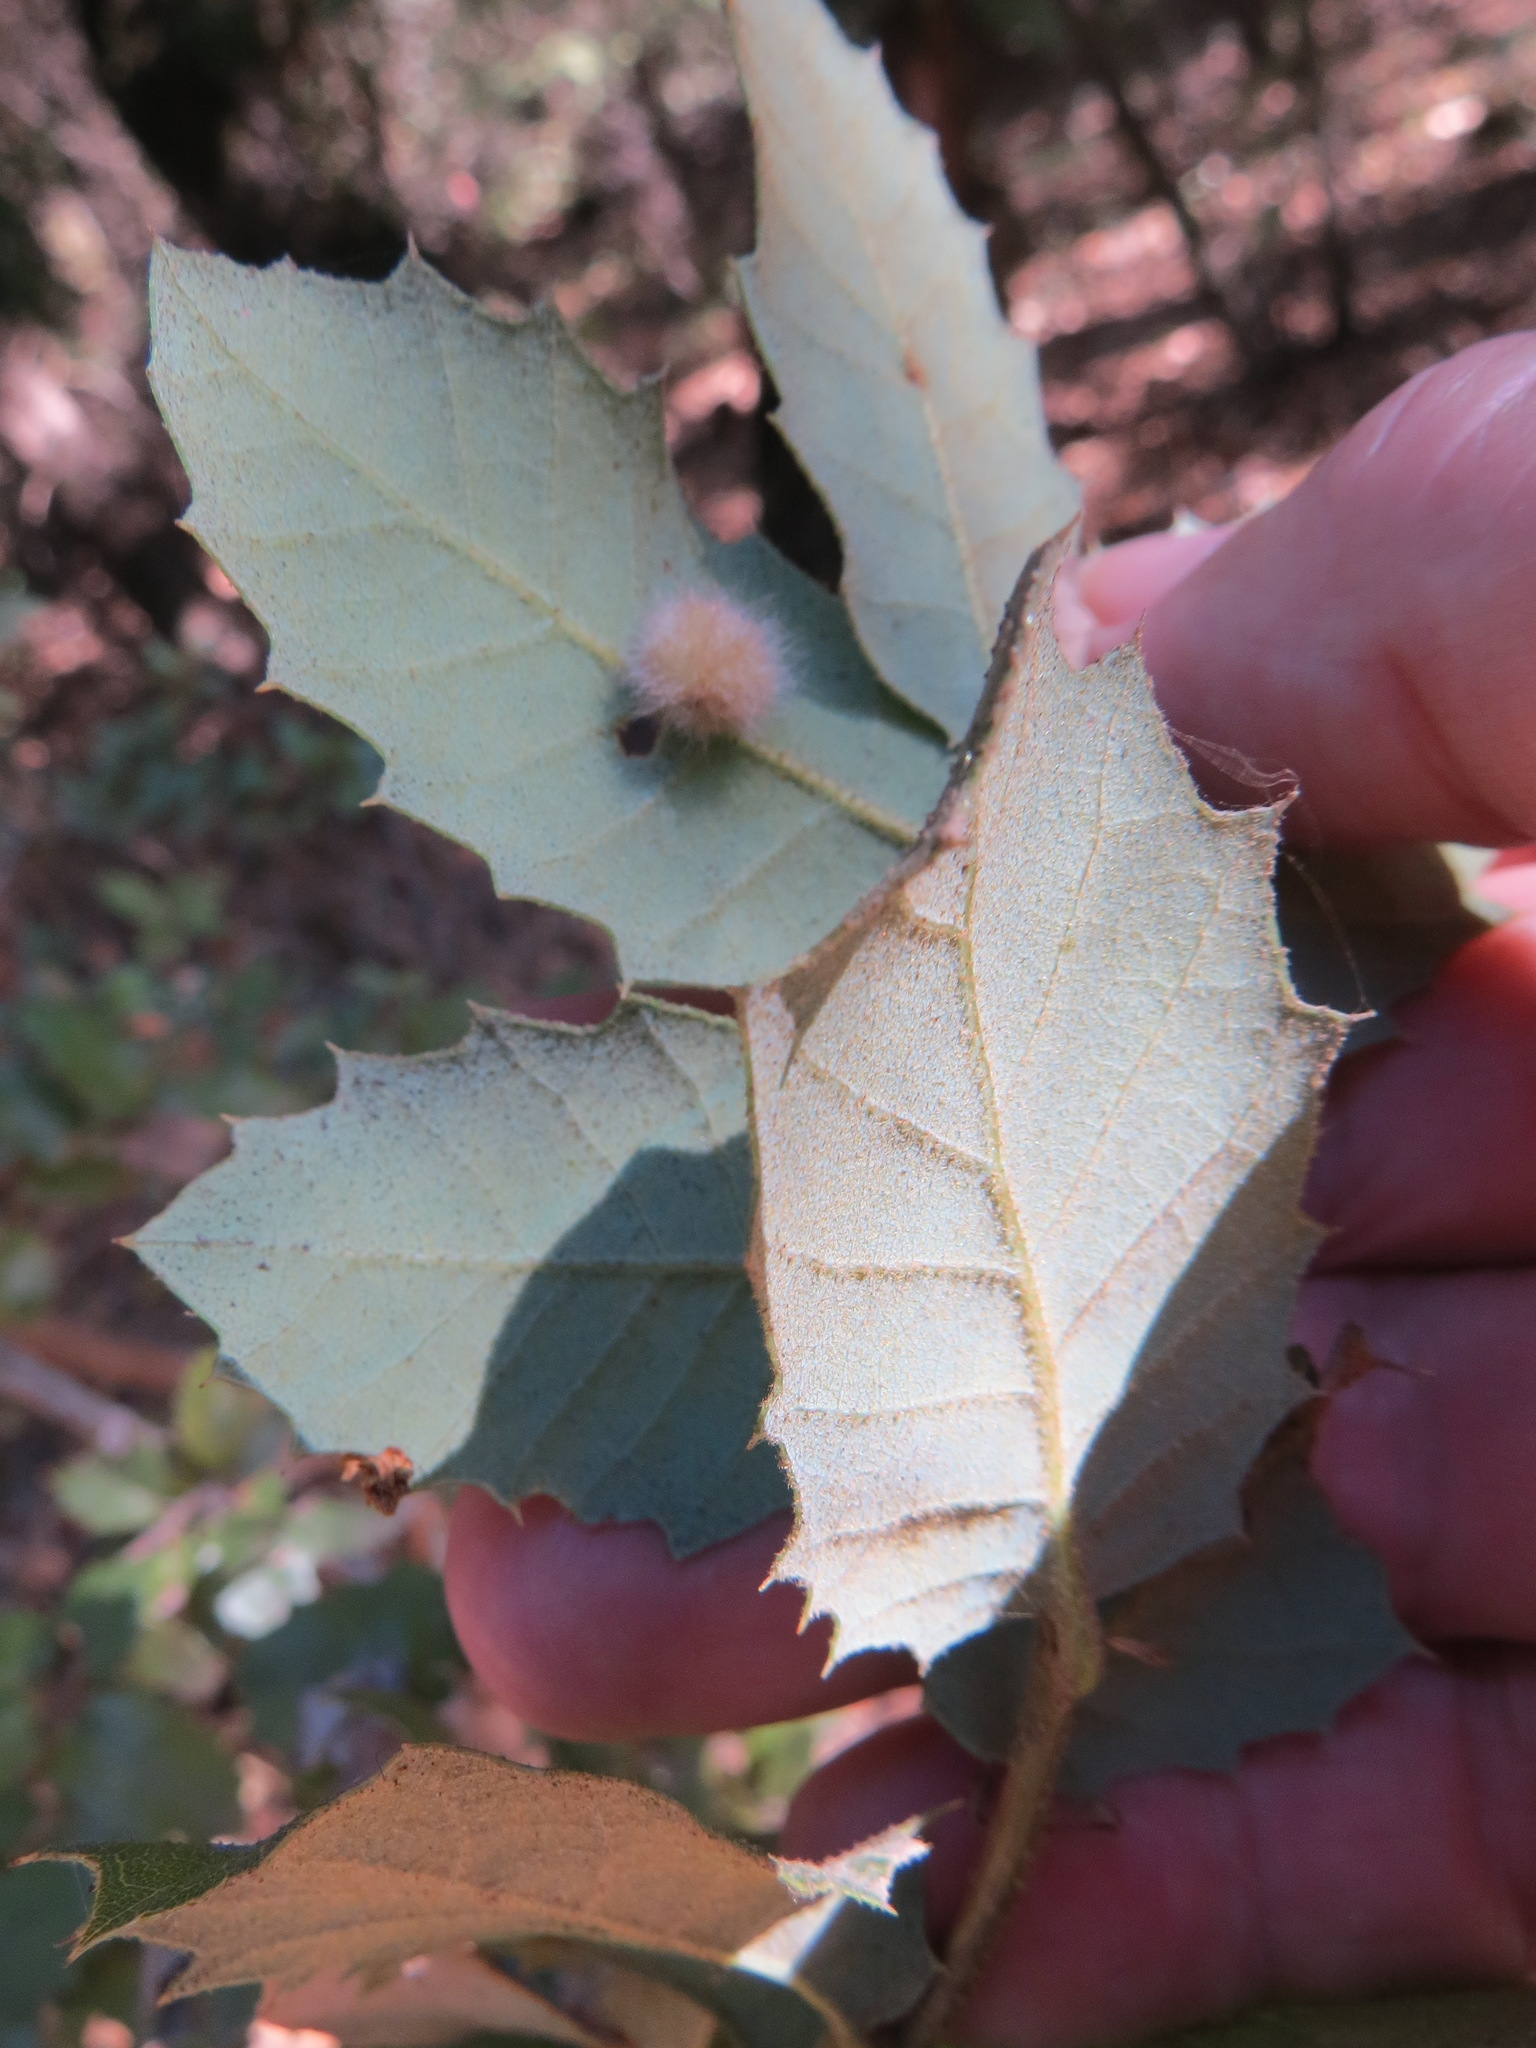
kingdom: Animalia
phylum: Arthropoda
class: Insecta
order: Hymenoptera
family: Cynipidae
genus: Disholandricus
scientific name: Disholandricus
